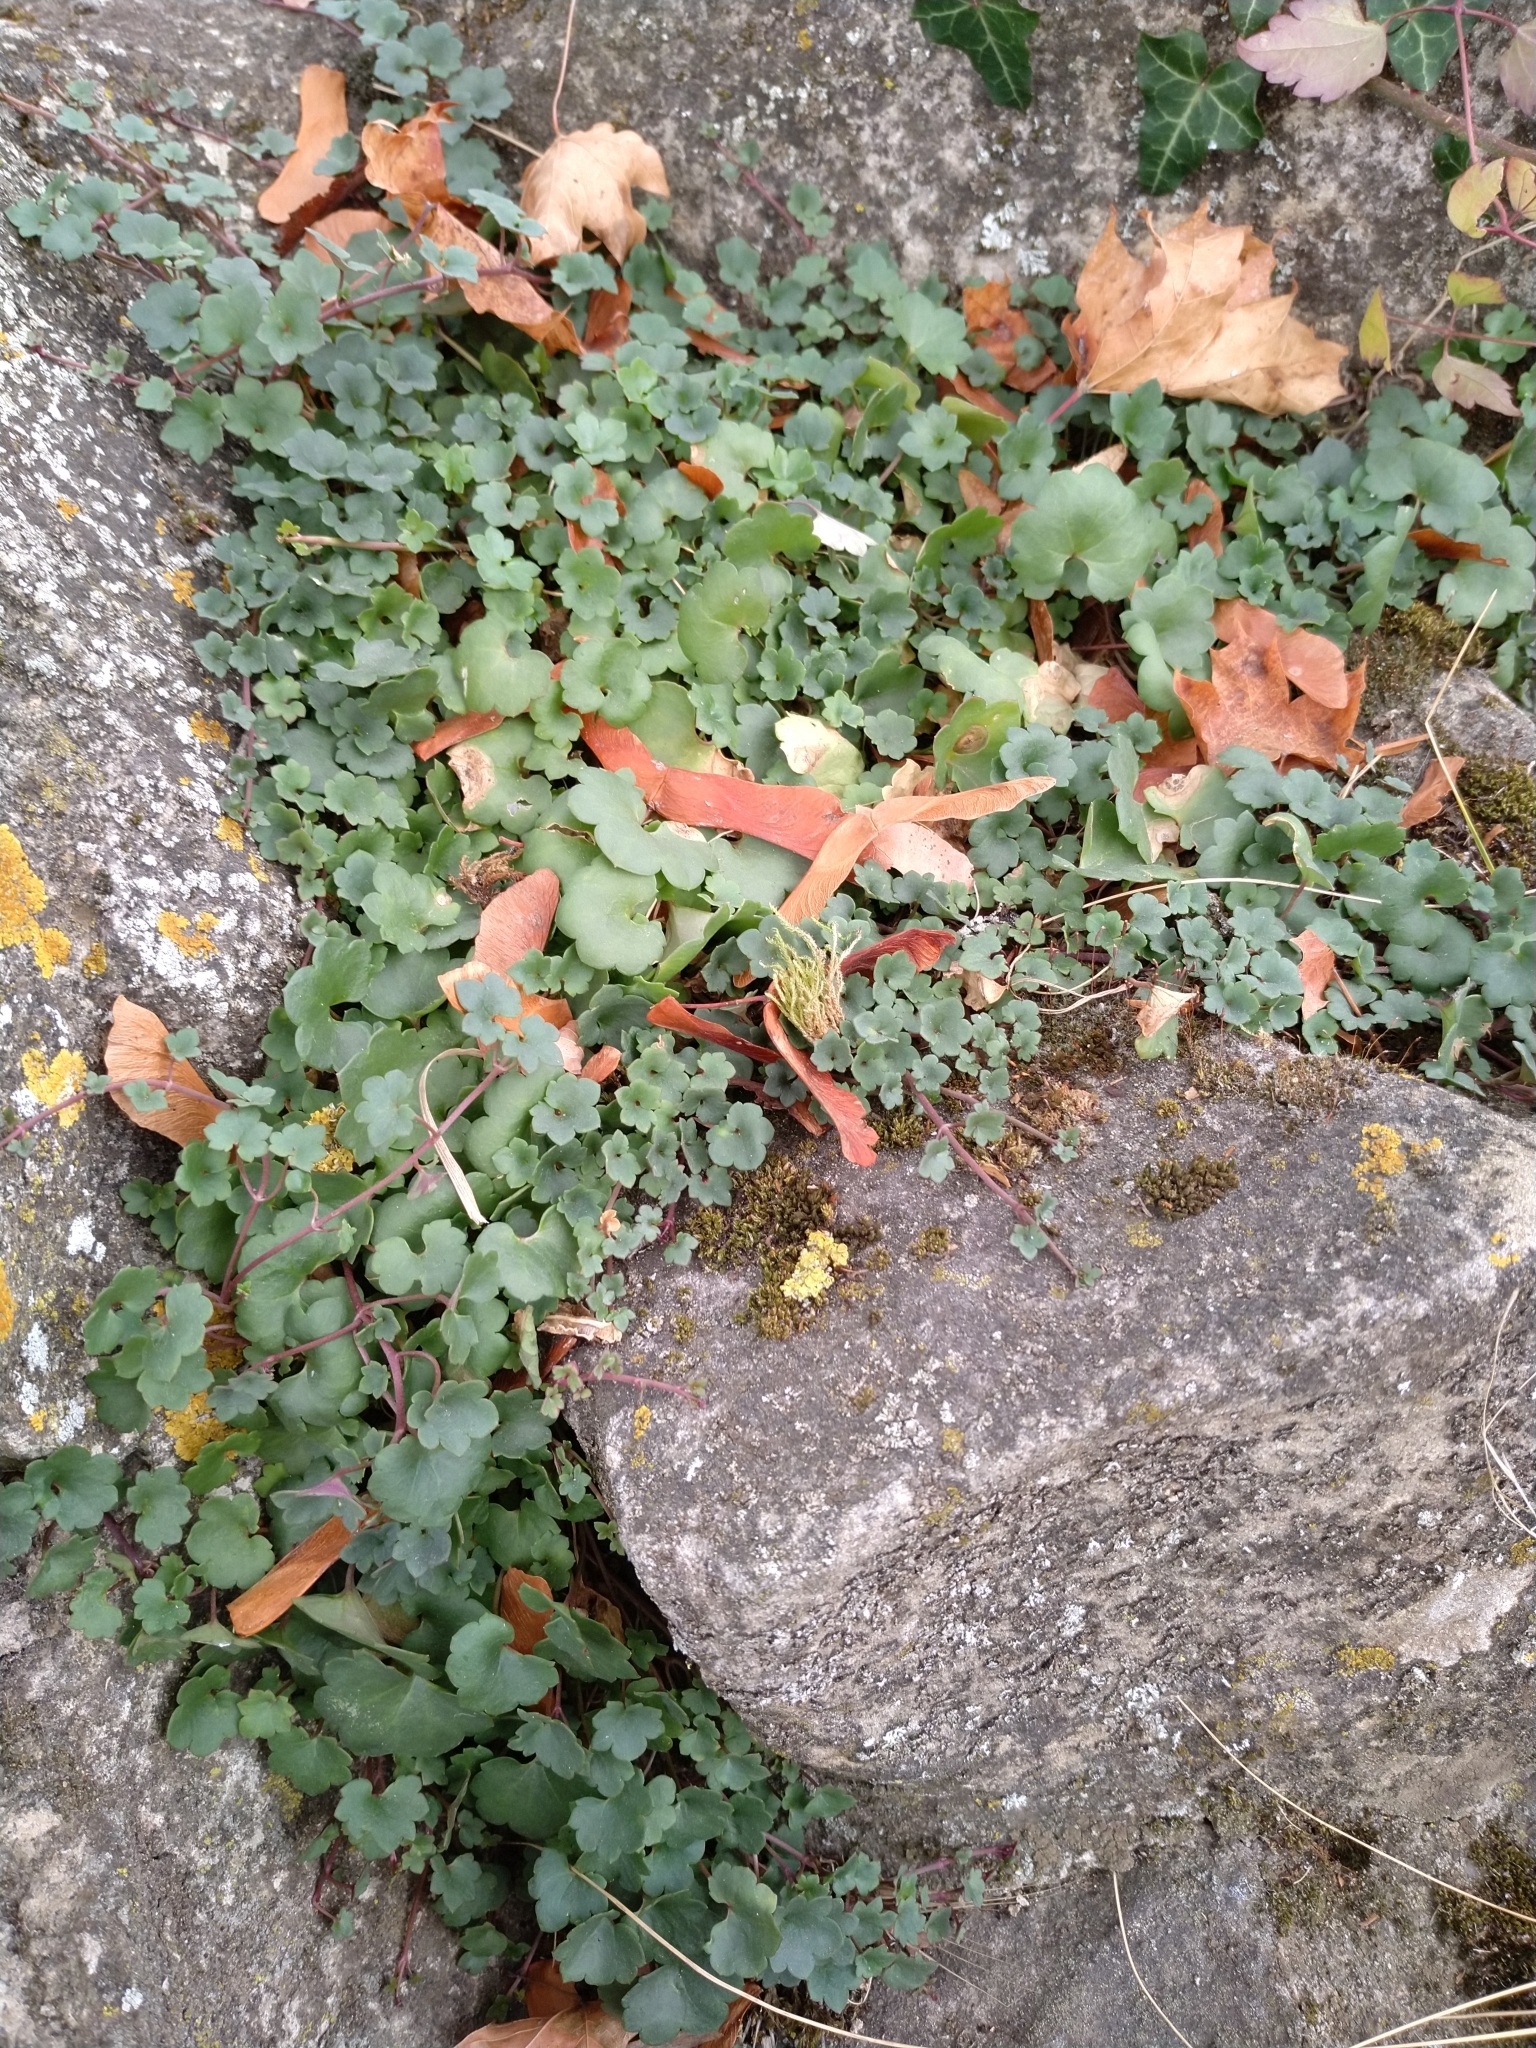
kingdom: Plantae
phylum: Tracheophyta
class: Magnoliopsida
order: Lamiales
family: Plantaginaceae
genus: Cymbalaria
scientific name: Cymbalaria muralis
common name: Ivy-leaved toadflax
